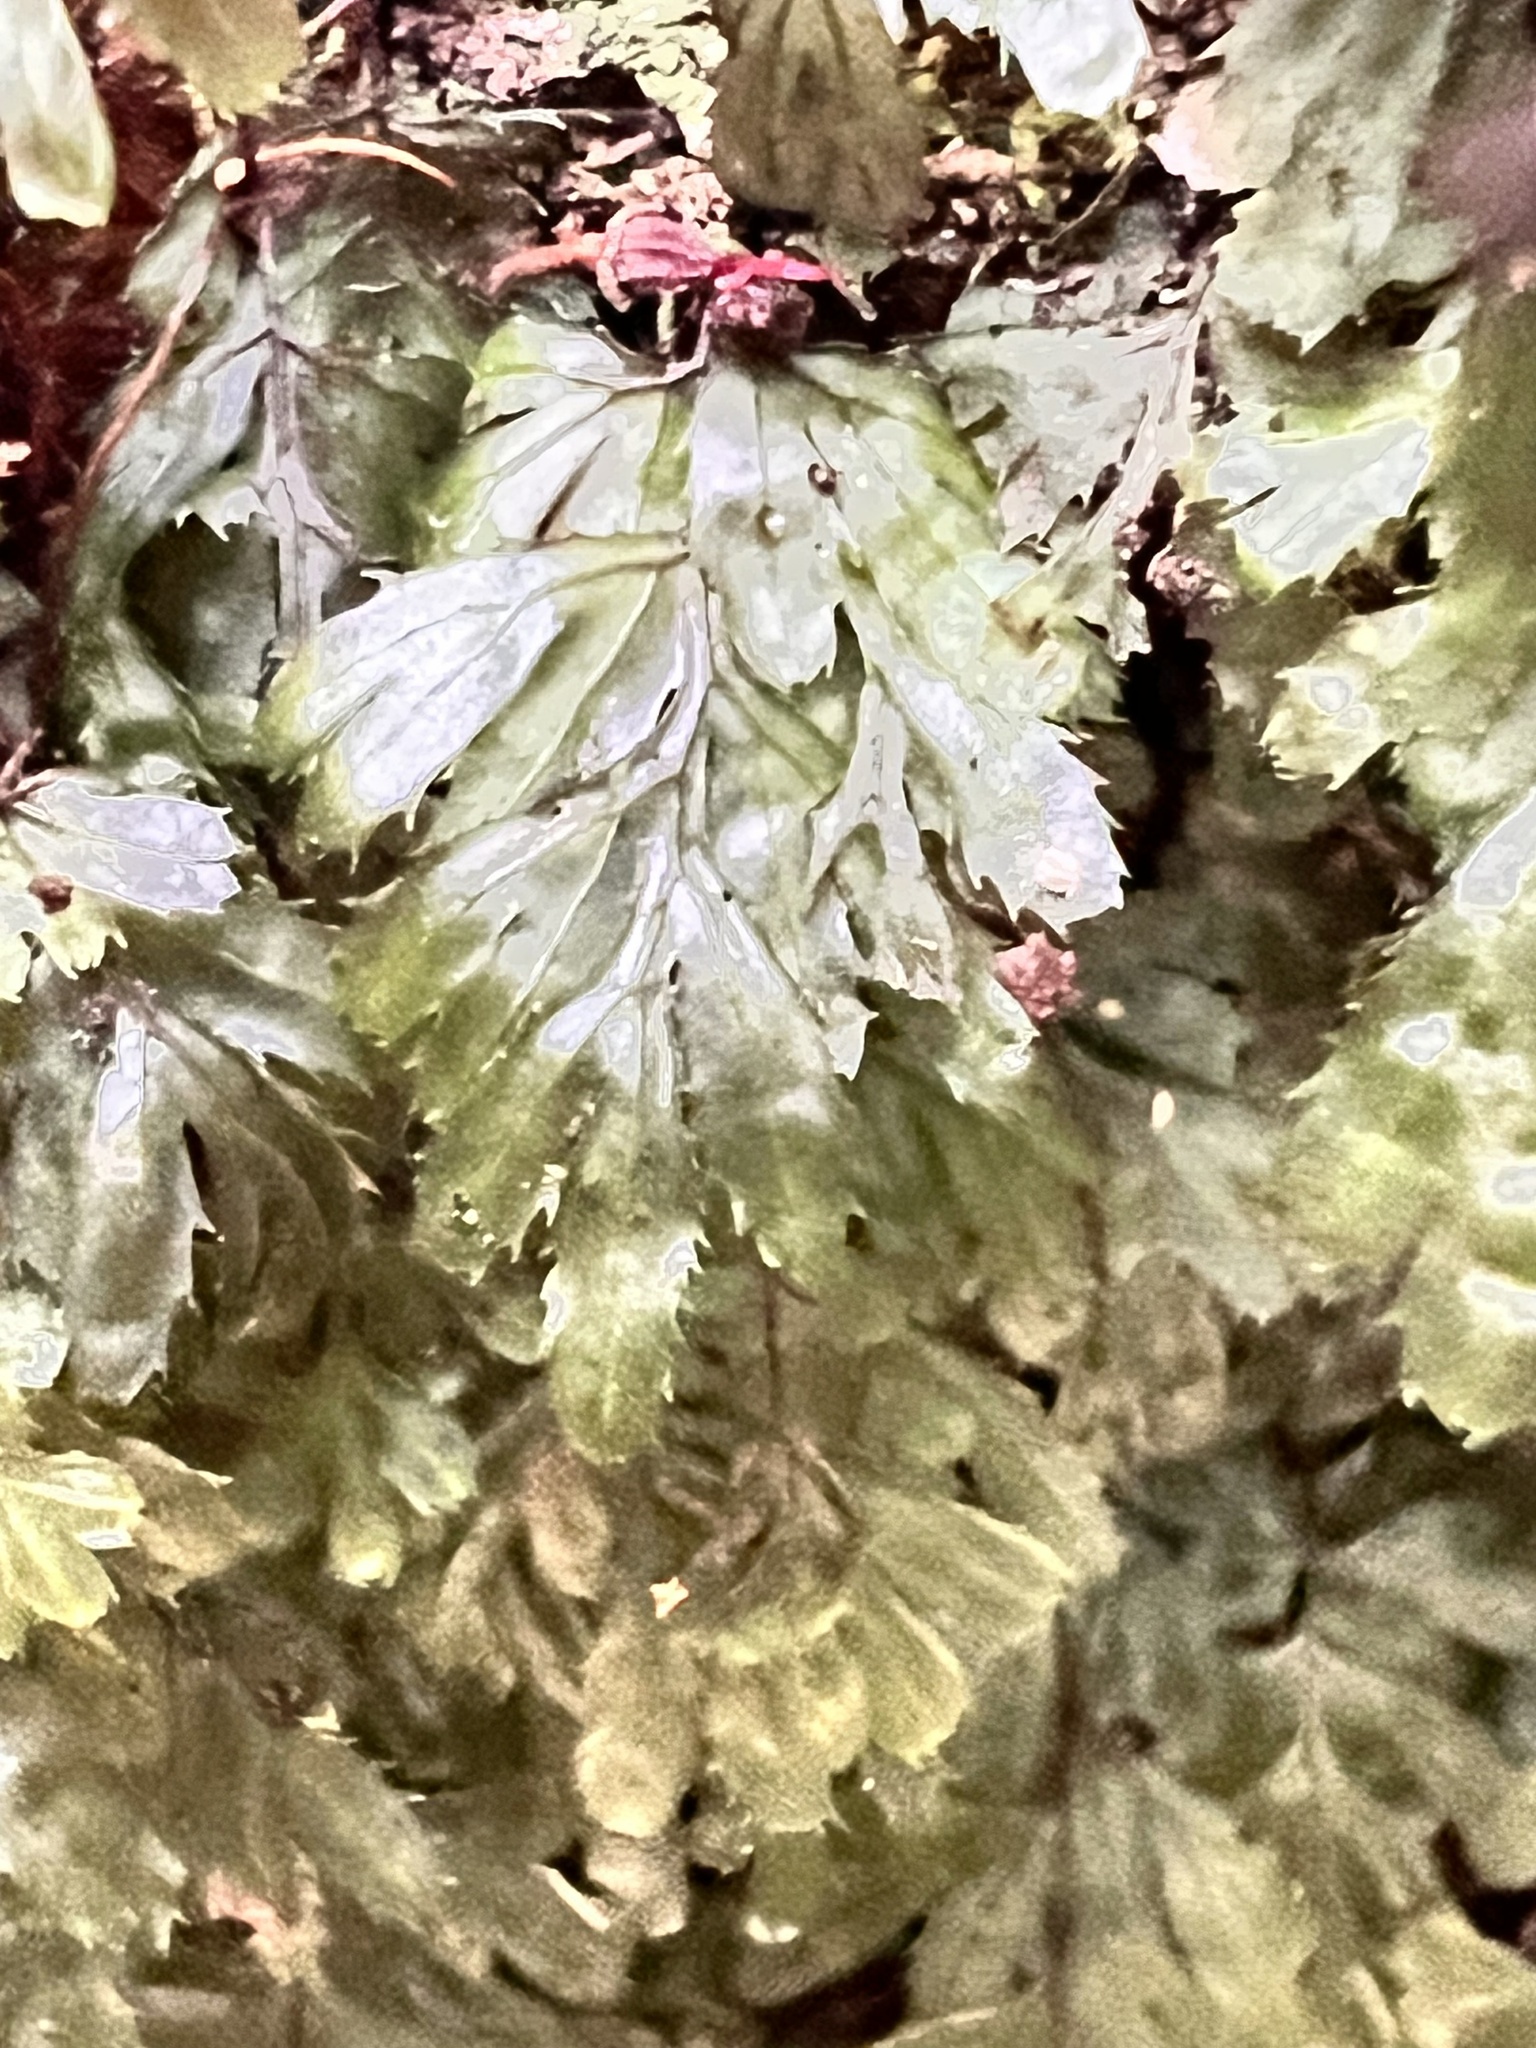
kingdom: Plantae
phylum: Tracheophyta
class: Polypodiopsida
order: Hymenophyllales
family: Hymenophyllaceae
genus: Hymenophyllum
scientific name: Hymenophyllum revolutum
